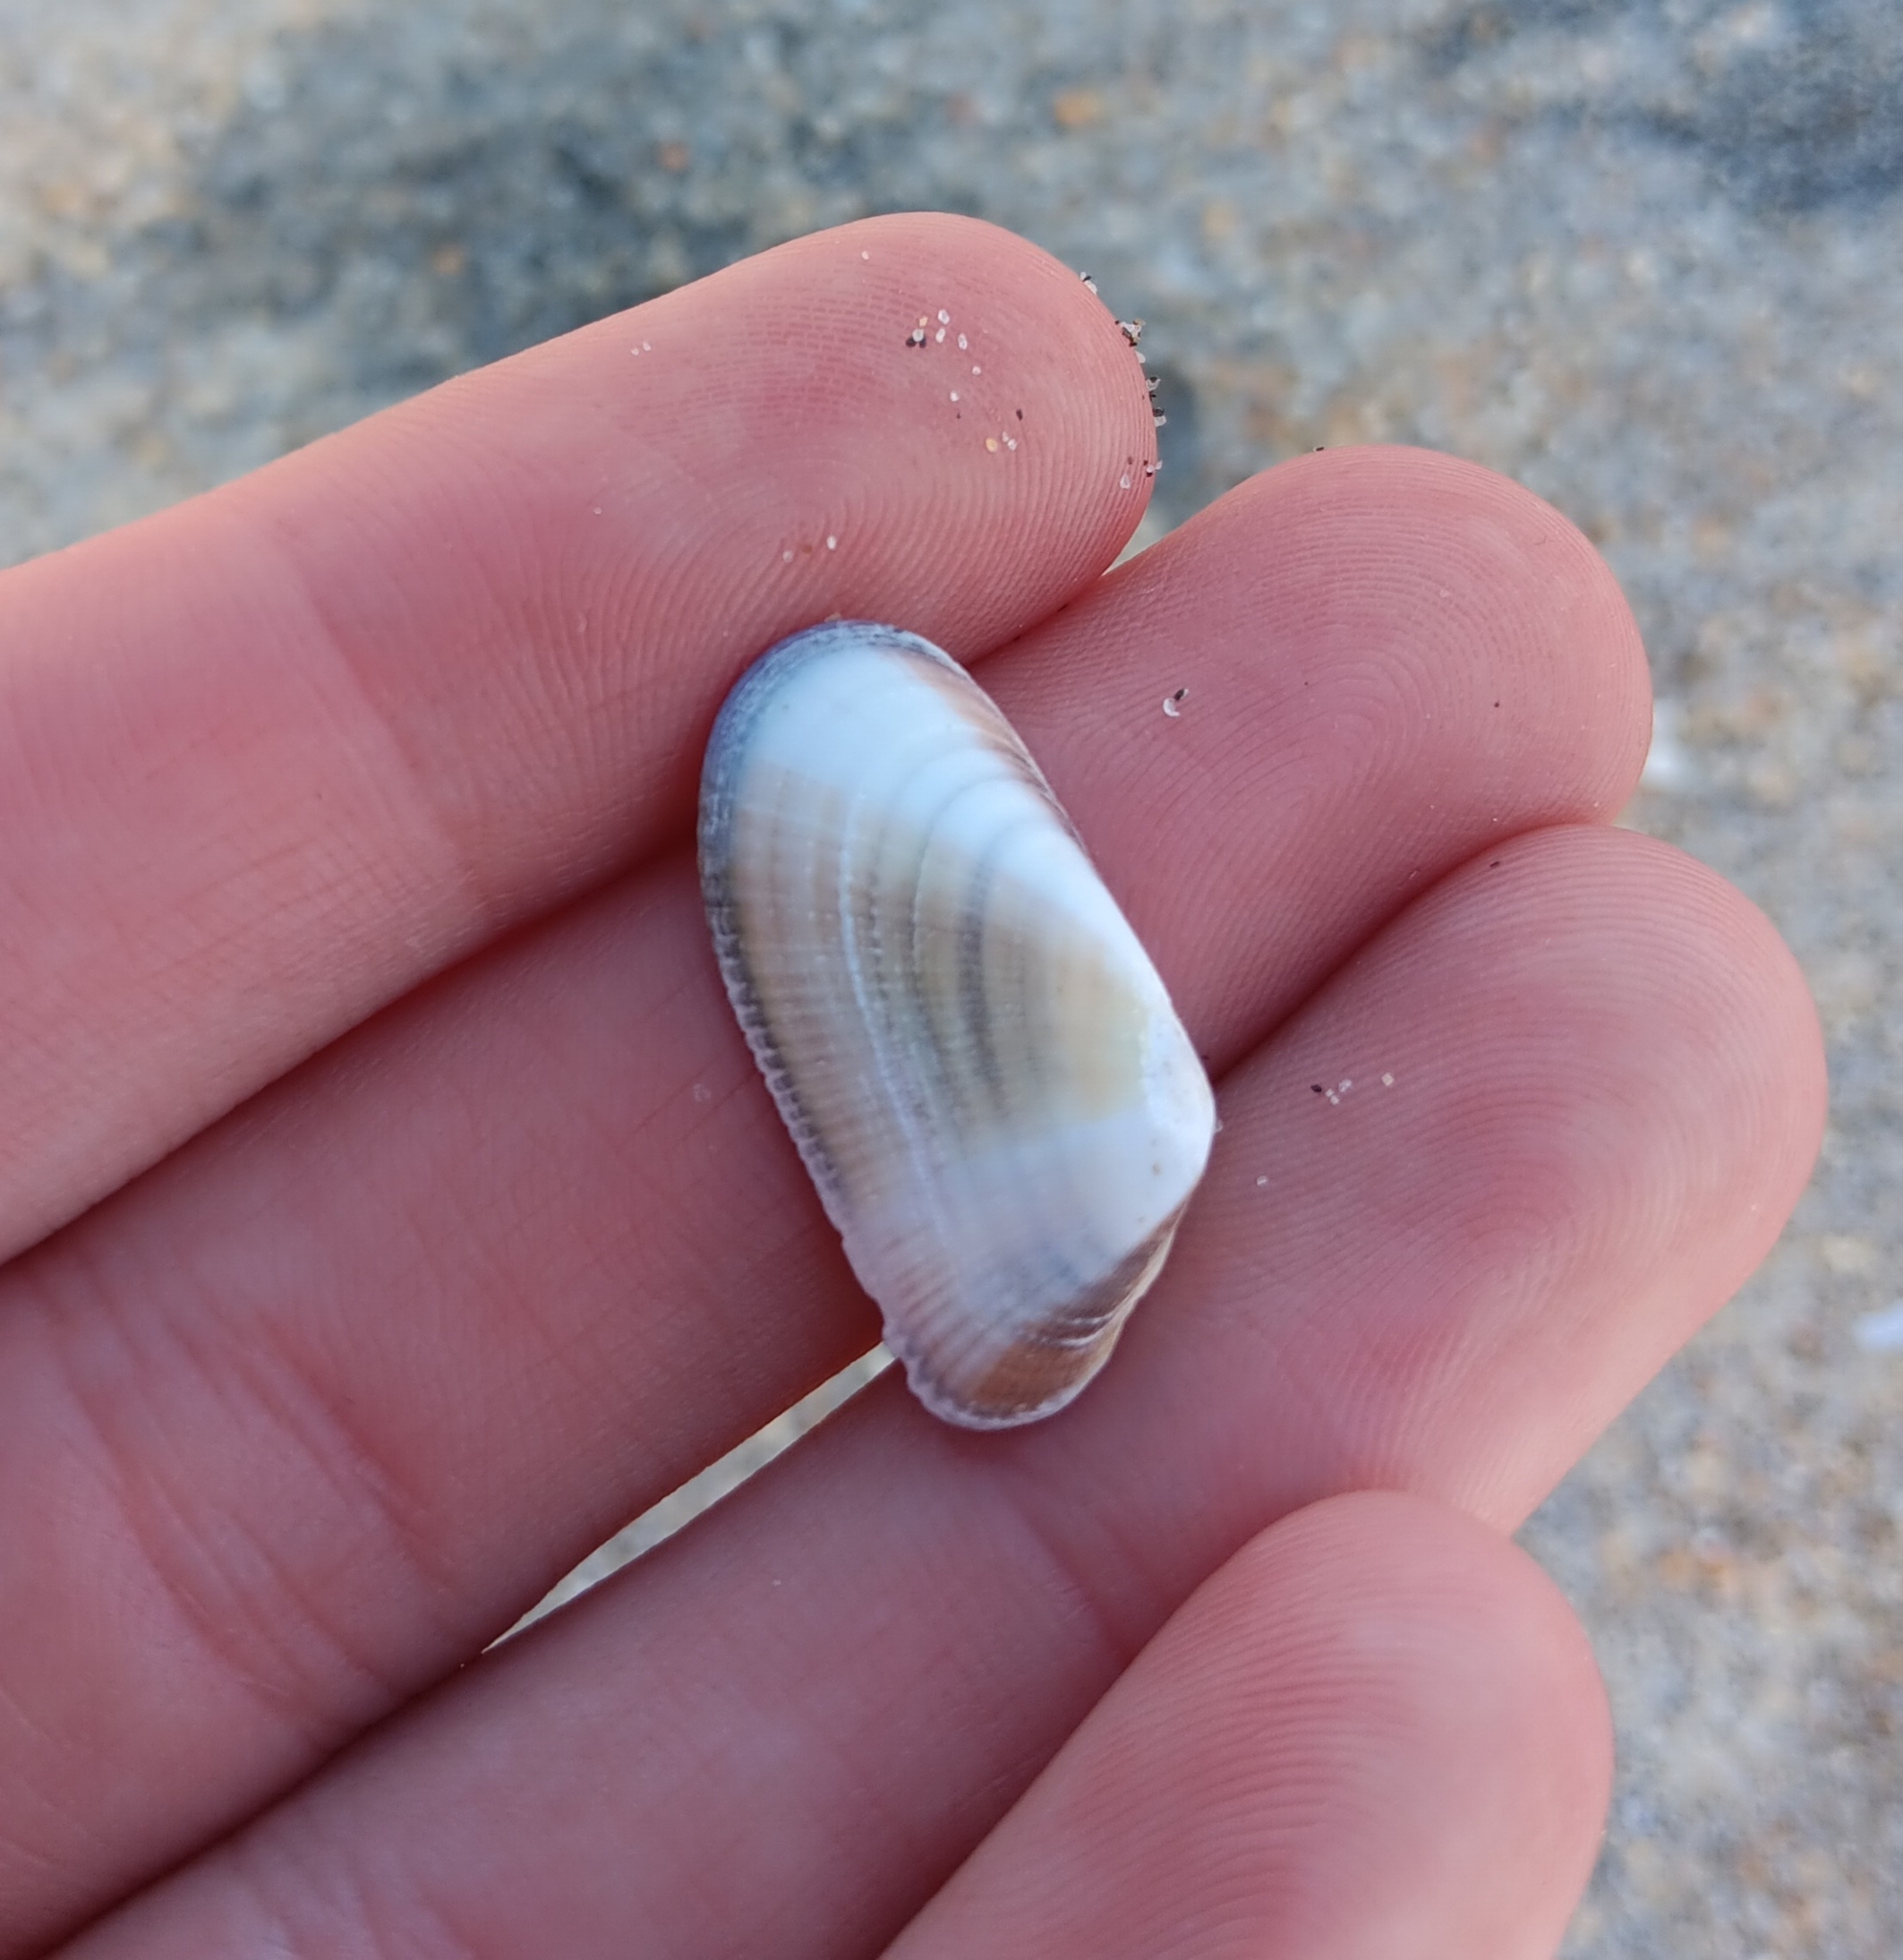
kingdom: Animalia
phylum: Mollusca
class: Bivalvia
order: Cardiida
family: Donacidae
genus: Donax
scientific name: Donax gouldii
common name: Gould beanclam
